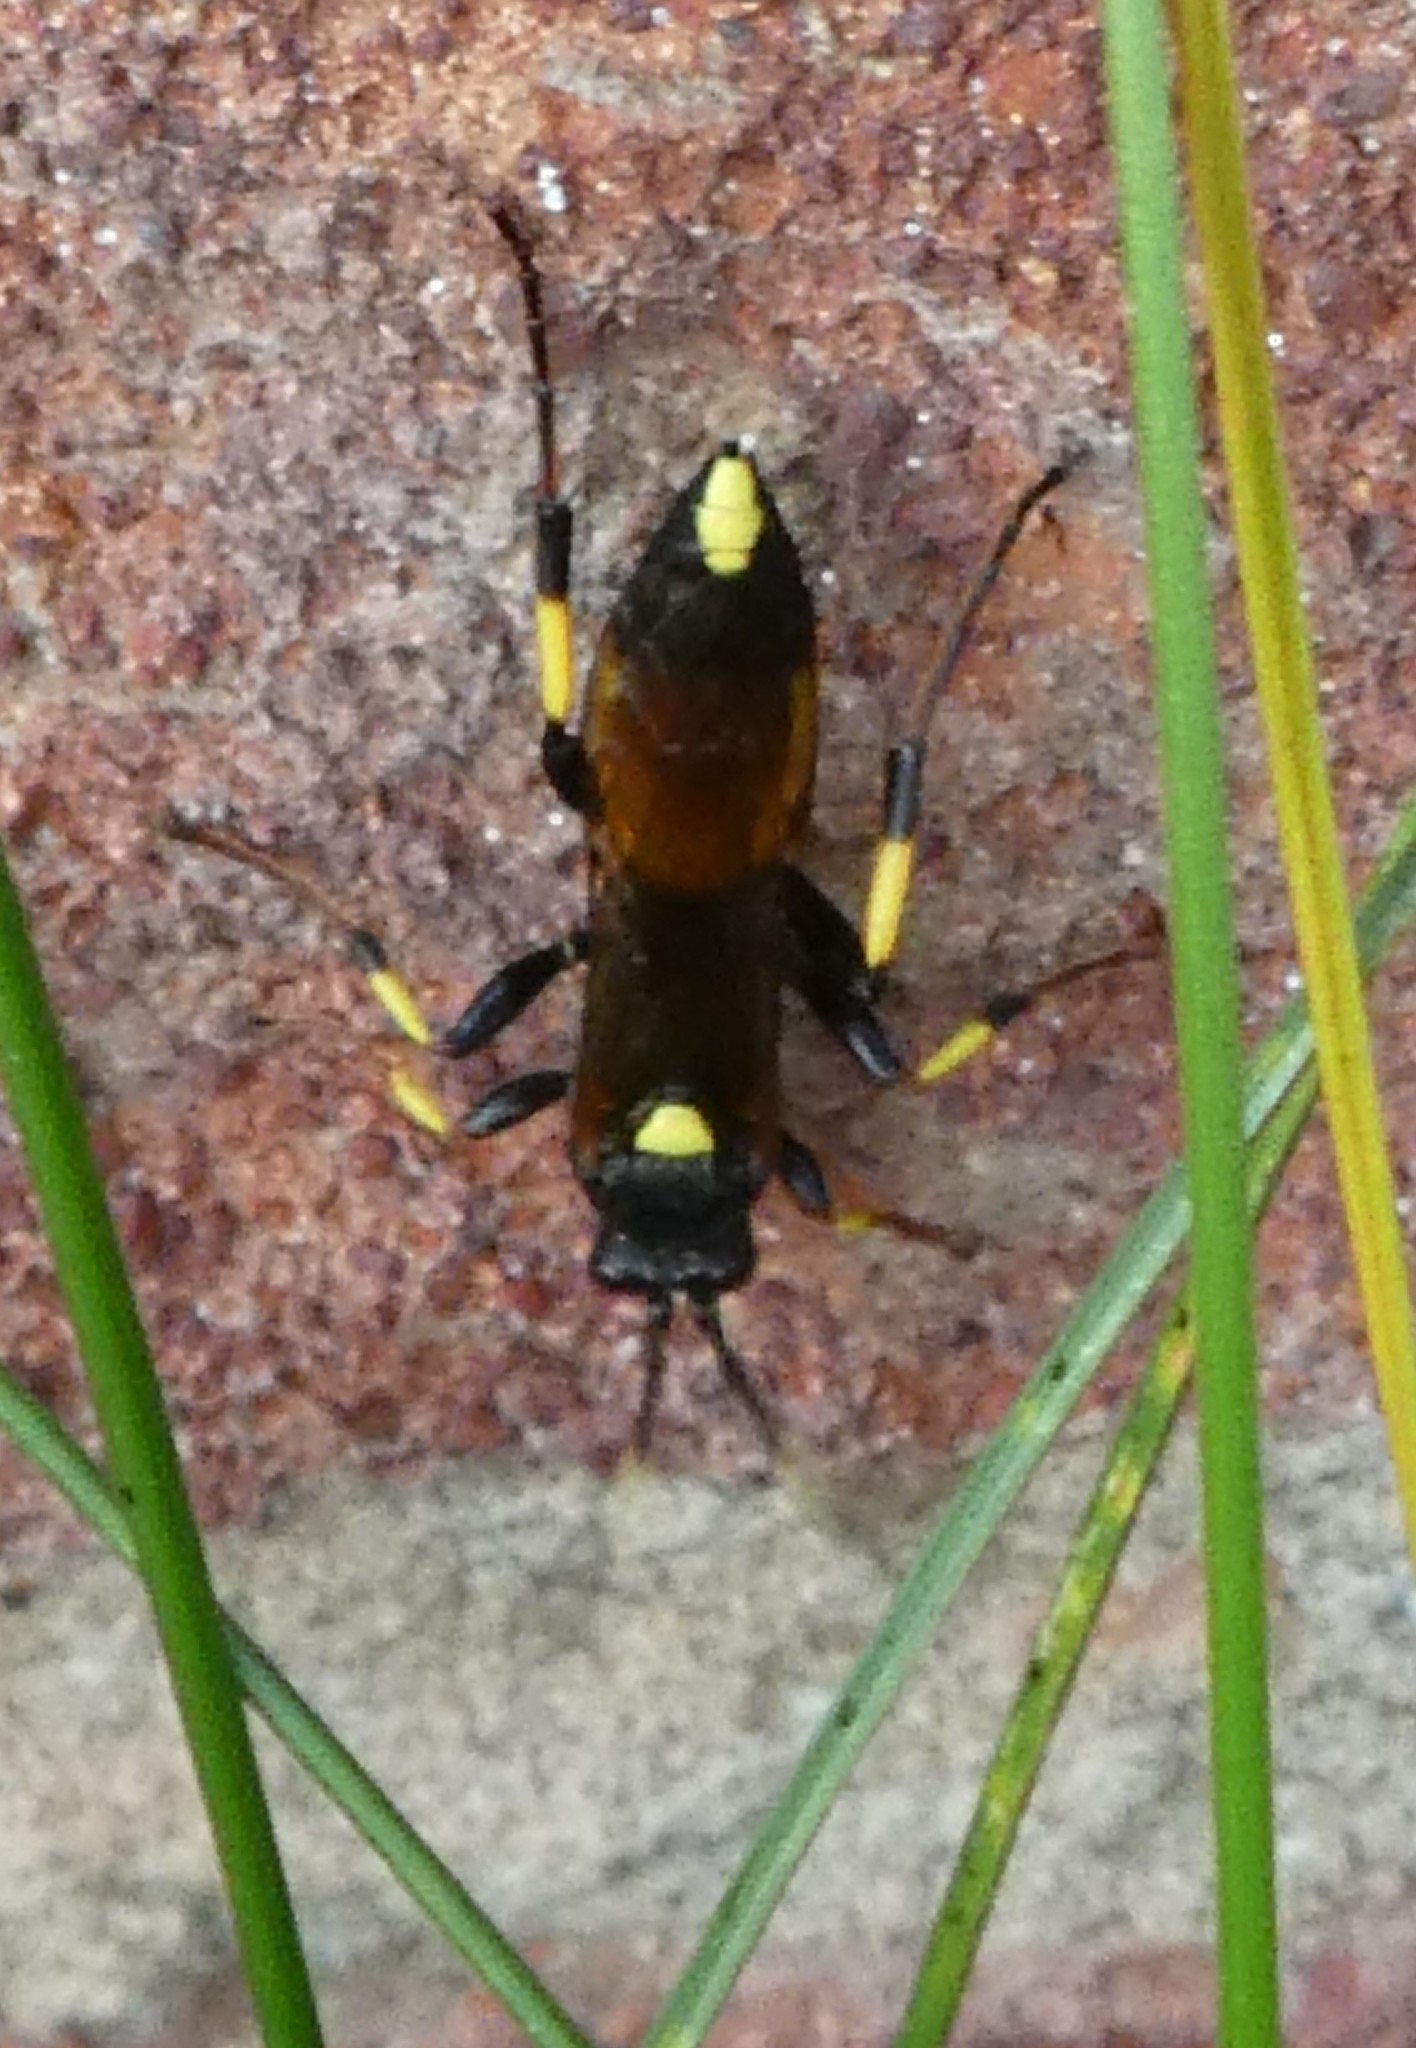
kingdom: Animalia
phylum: Arthropoda
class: Insecta
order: Hymenoptera
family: Ichneumonidae
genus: Ichneumon
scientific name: Ichneumon stramentor
